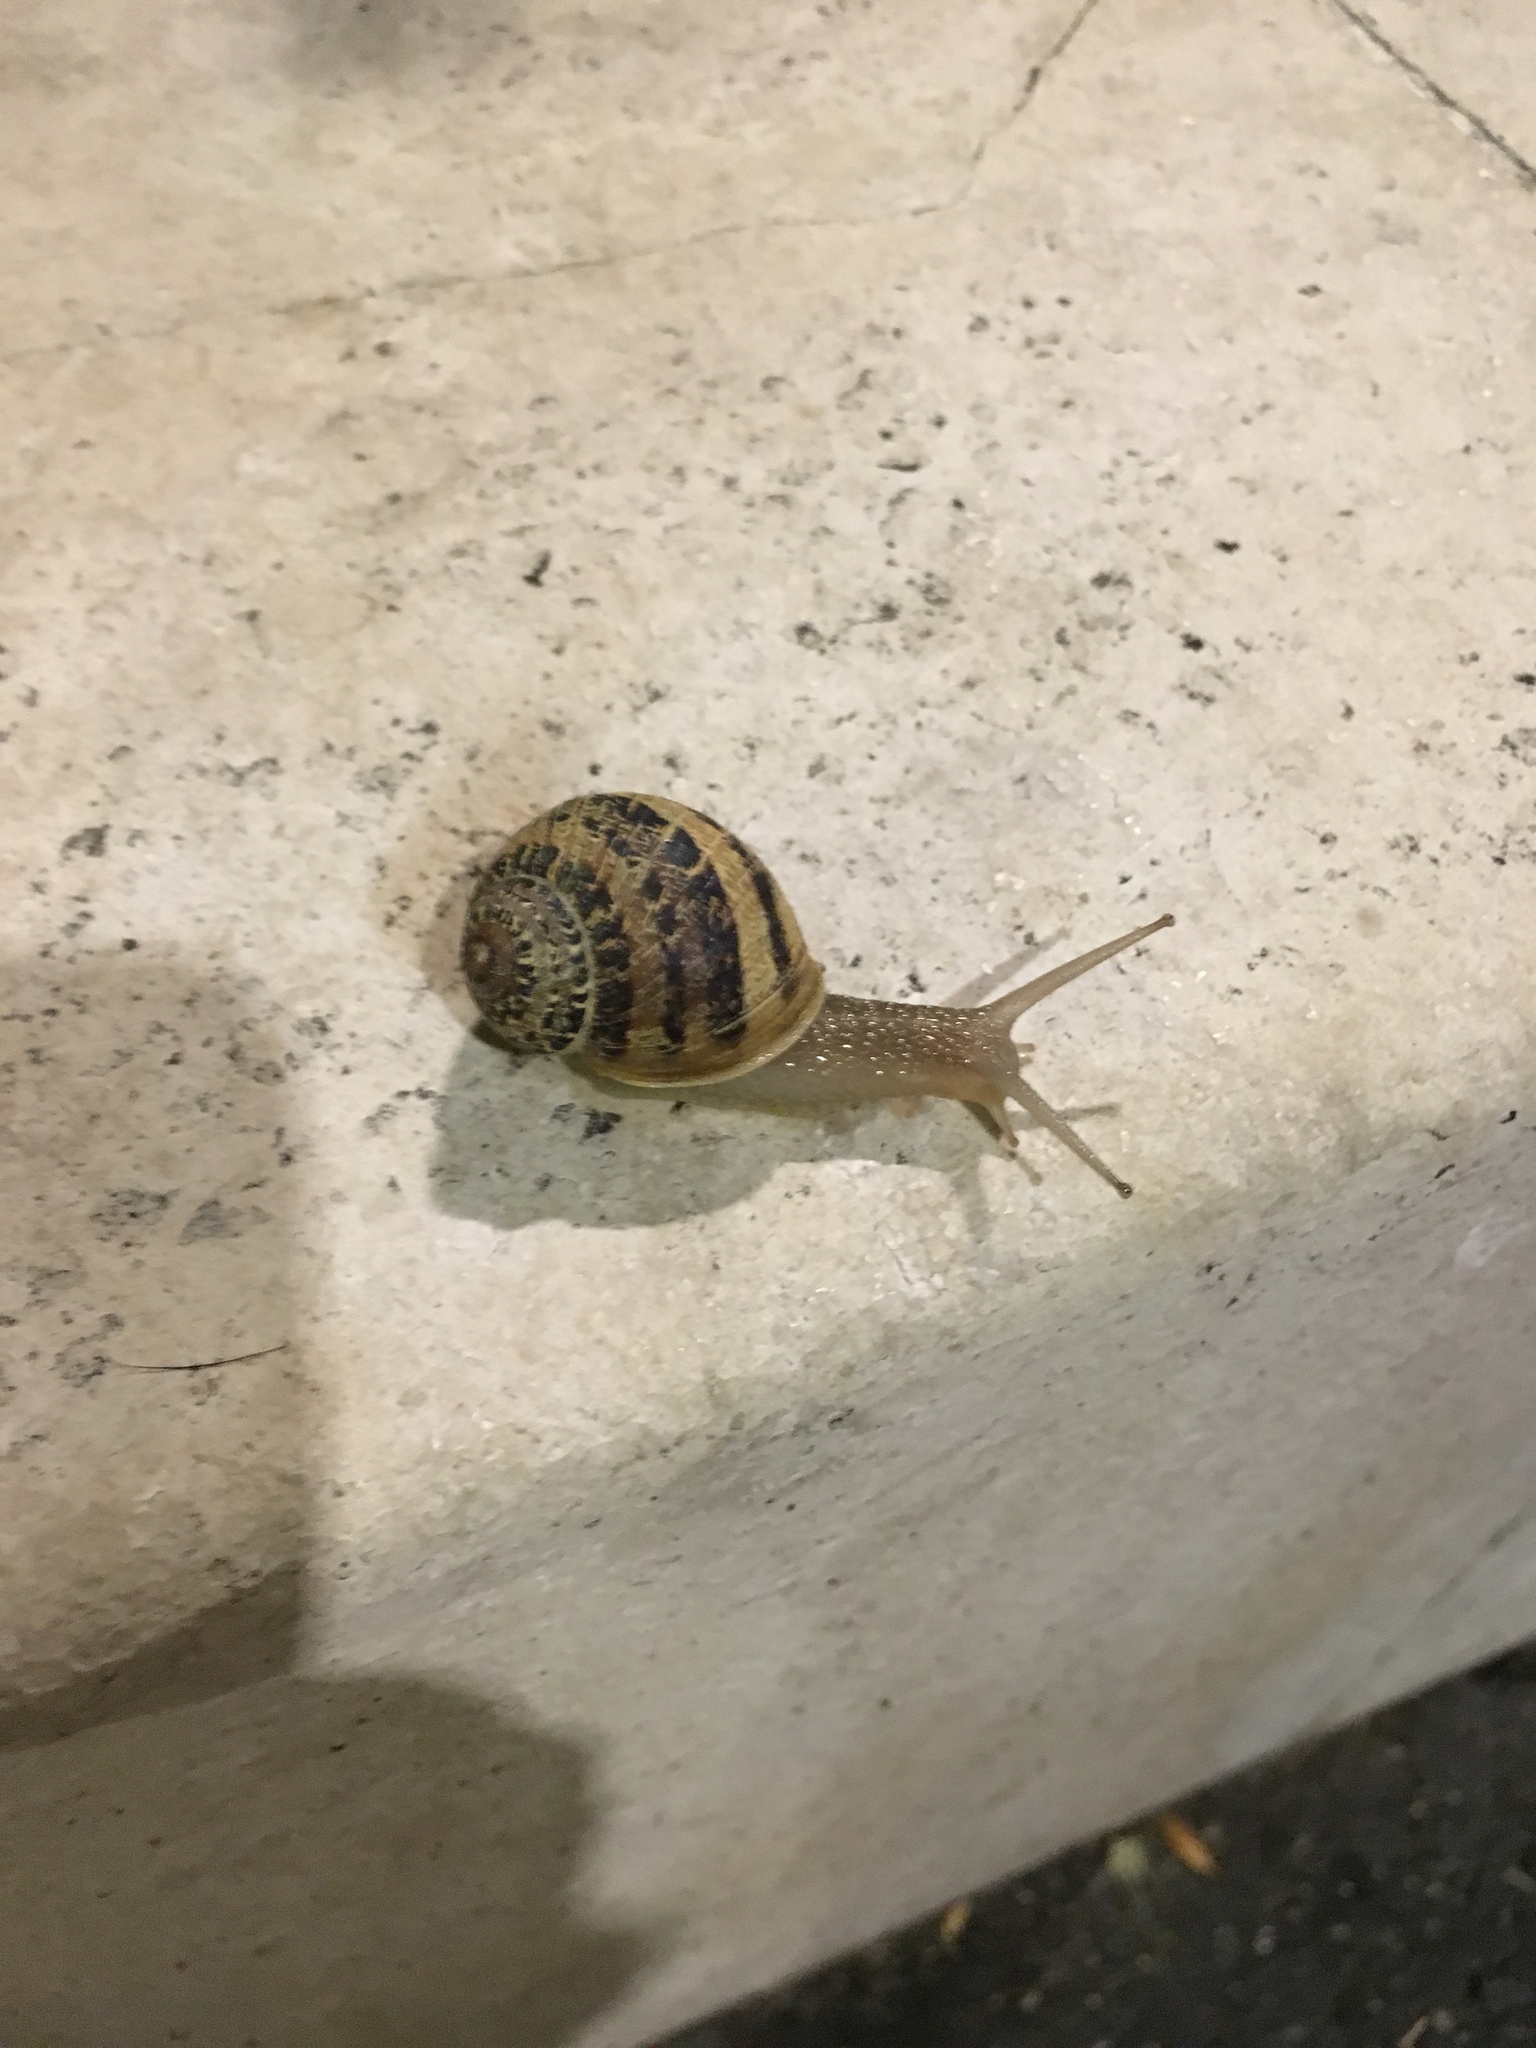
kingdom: Animalia
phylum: Mollusca
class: Gastropoda
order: Stylommatophora
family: Helicidae
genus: Cornu
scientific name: Cornu aspersum
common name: Brown garden snail
